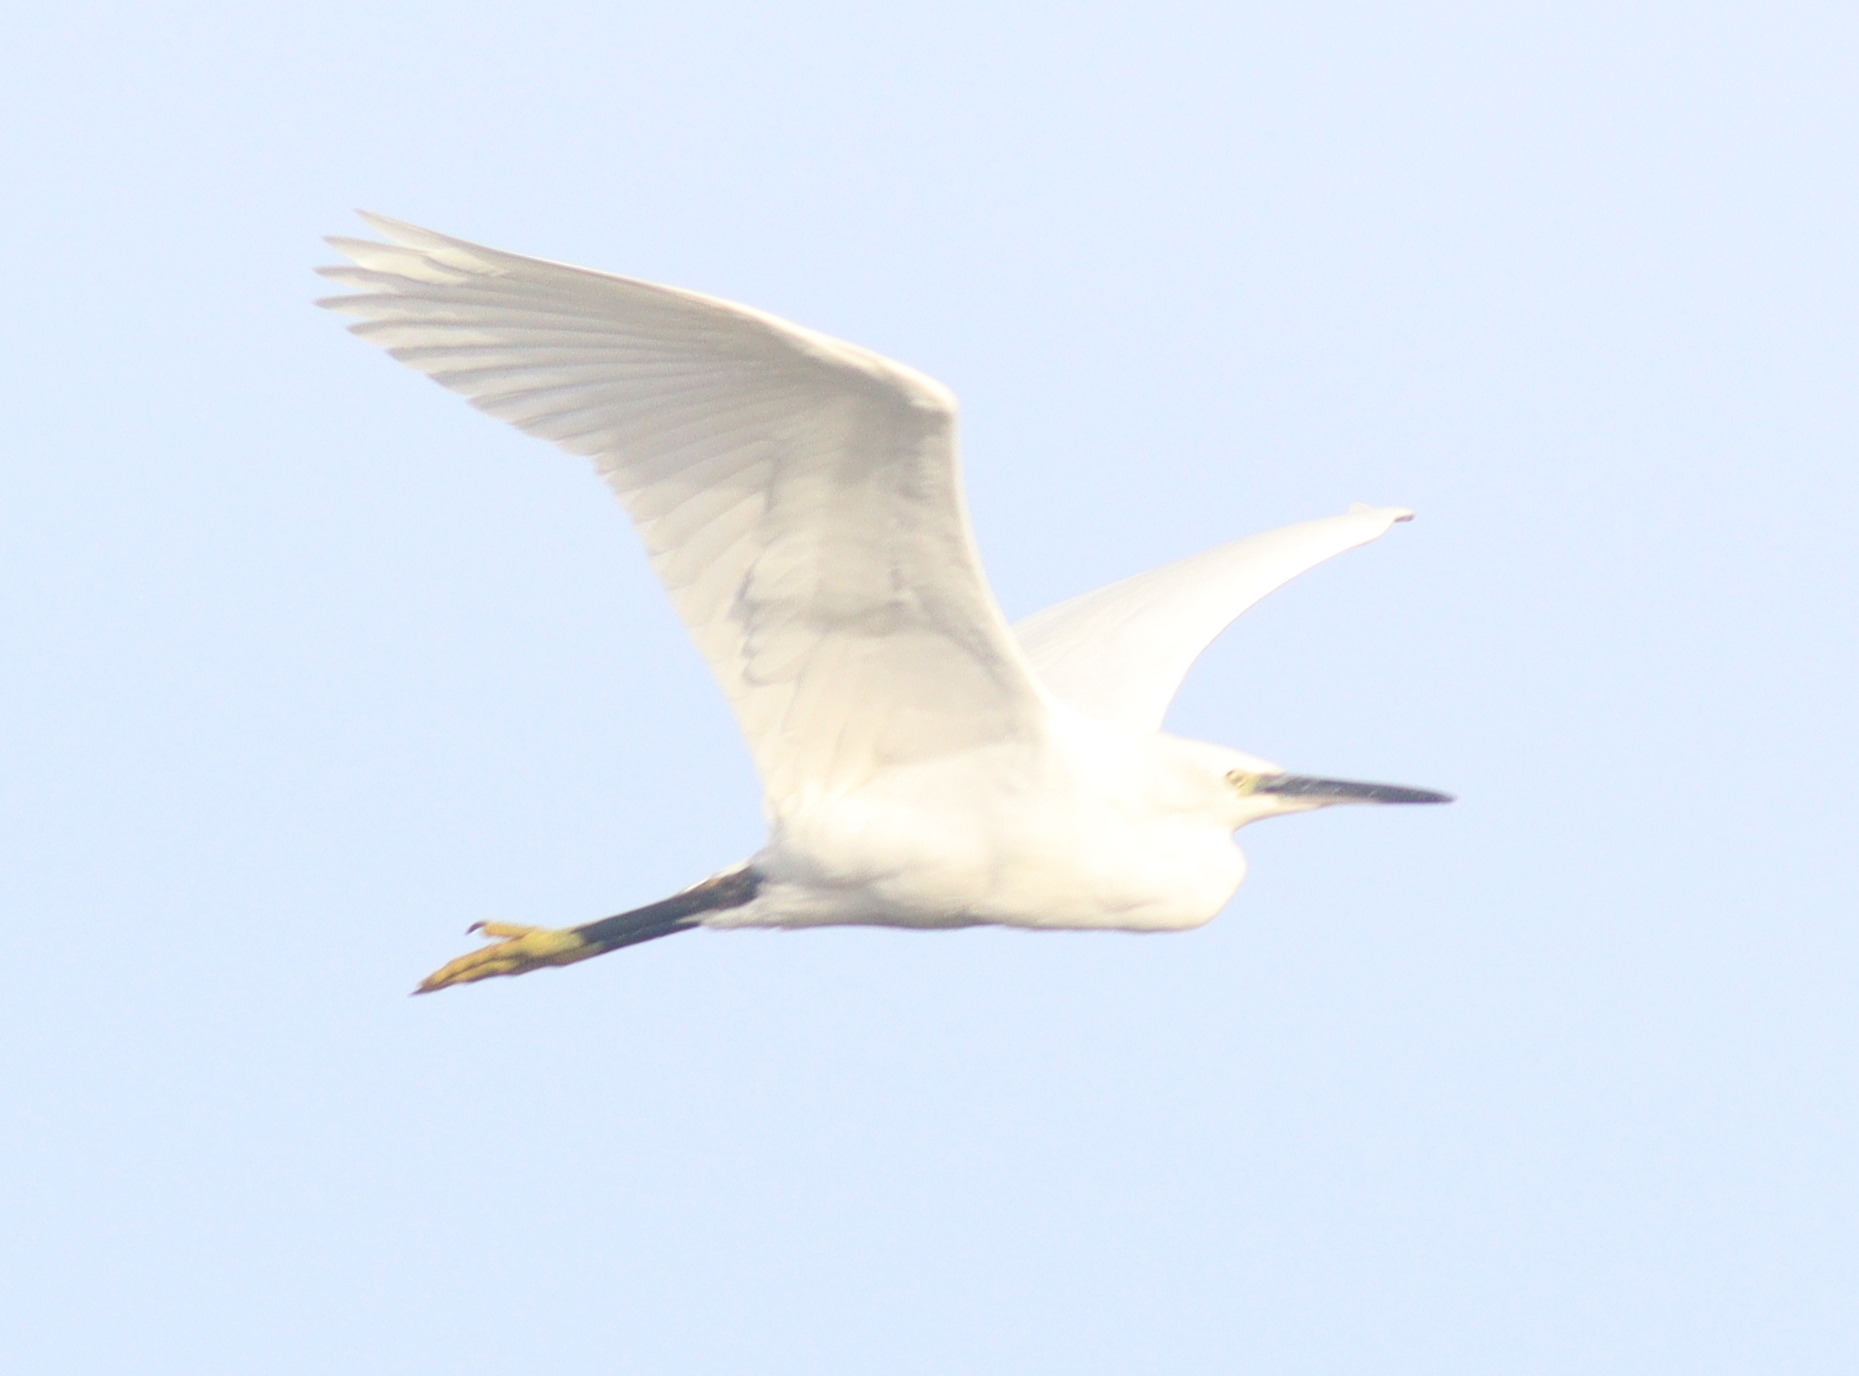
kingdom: Animalia
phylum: Chordata
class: Aves
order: Pelecaniformes
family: Ardeidae
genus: Egretta
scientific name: Egretta garzetta
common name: Little egret
